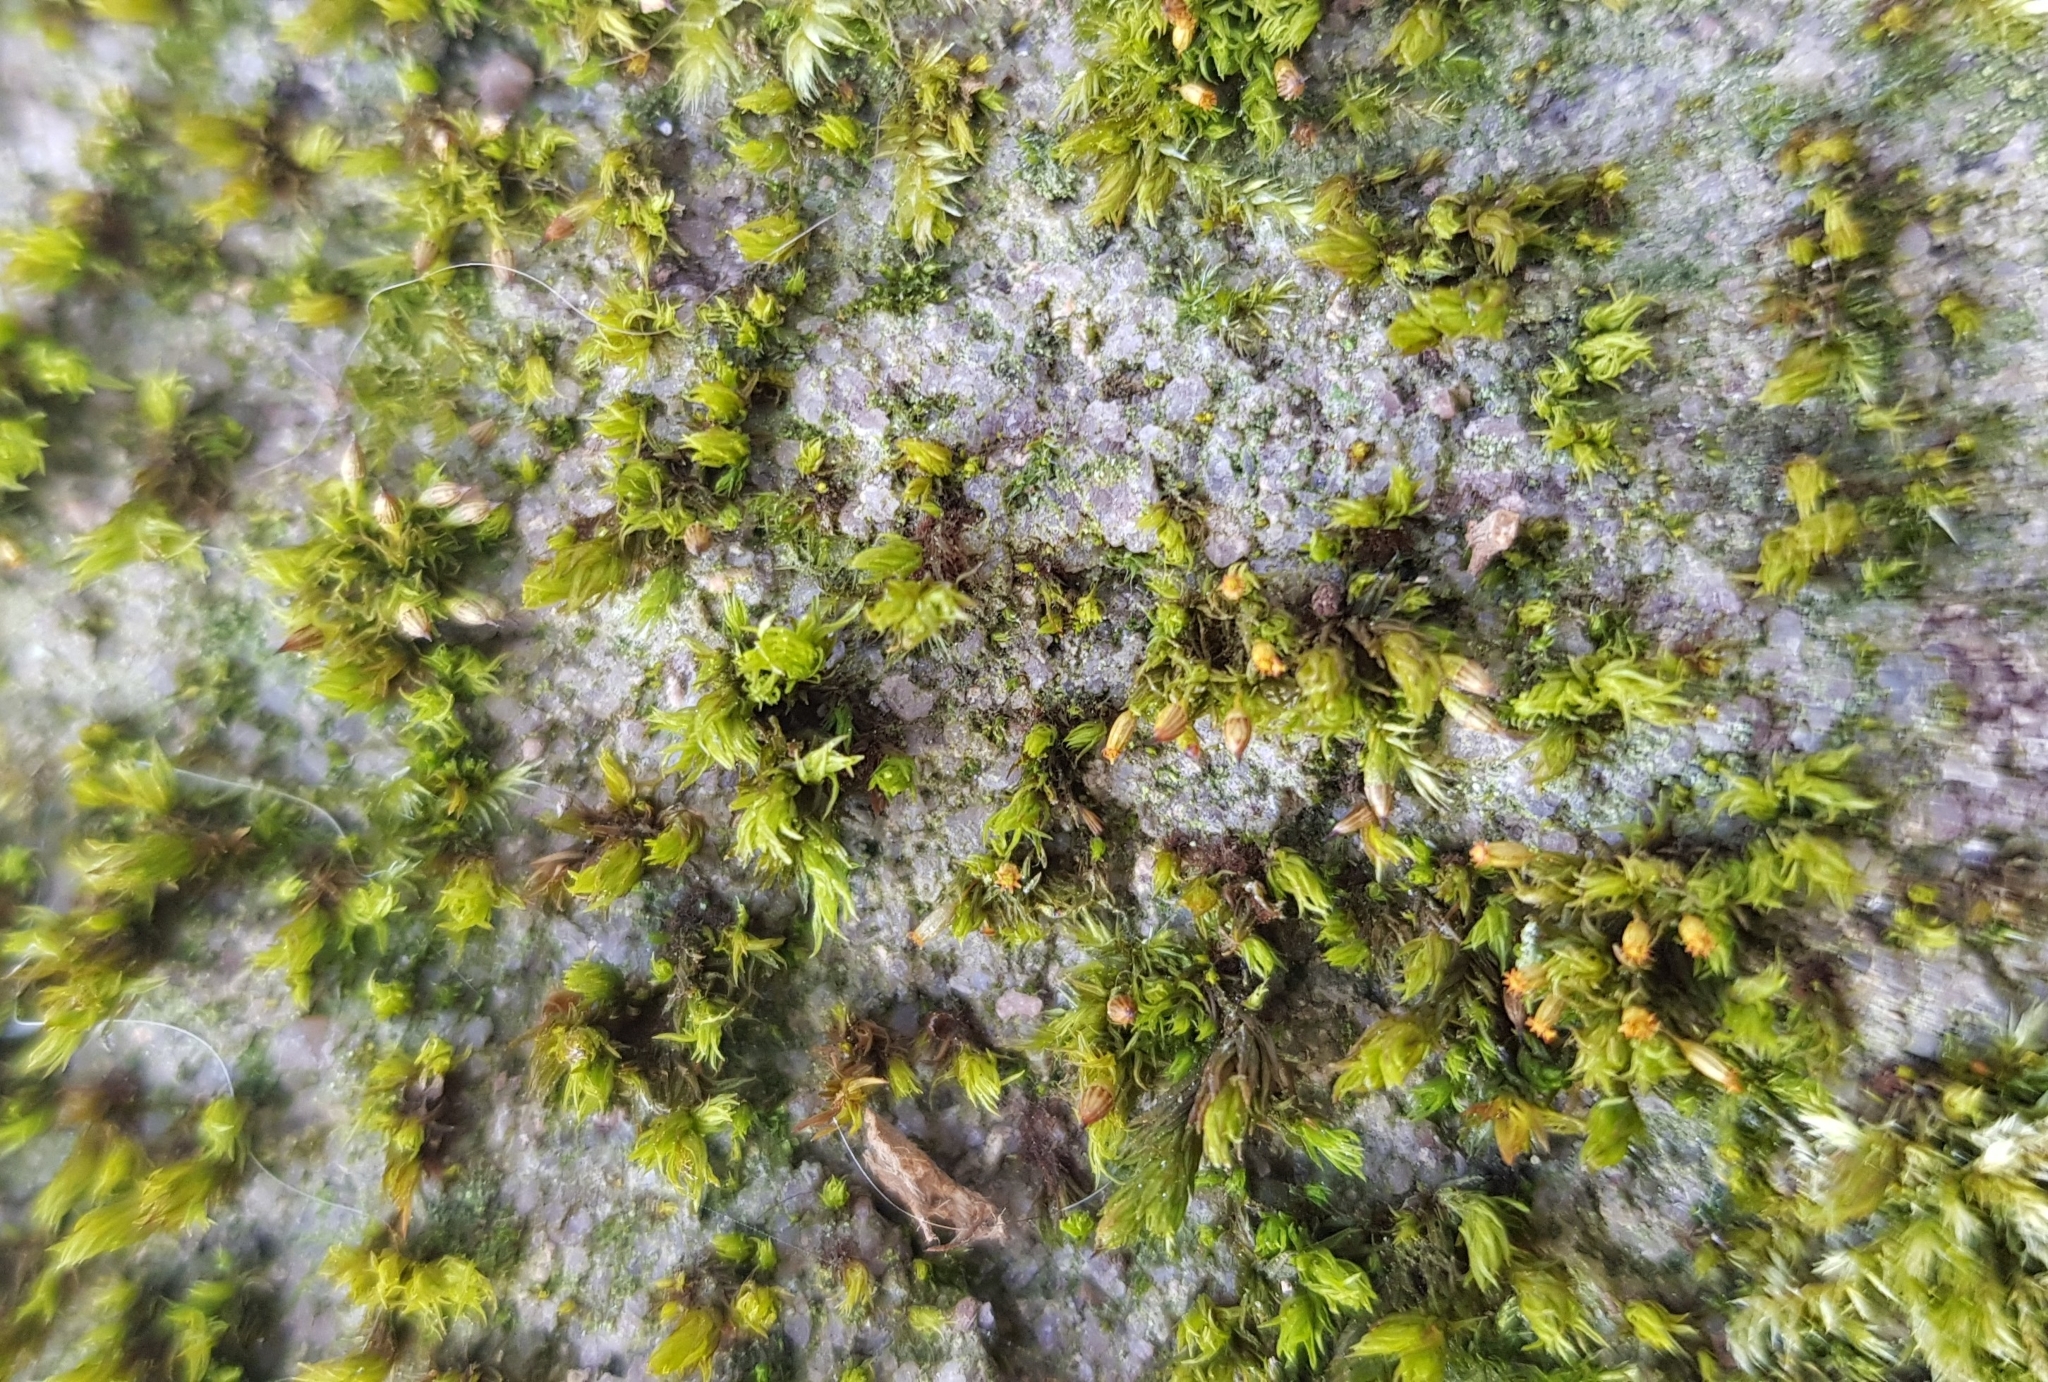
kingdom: Plantae
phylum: Bryophyta
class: Bryopsida
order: Orthotrichales
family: Orthotrichaceae
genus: Orthotrichum
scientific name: Orthotrichum pulchellum
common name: Elegant bristle-moss
